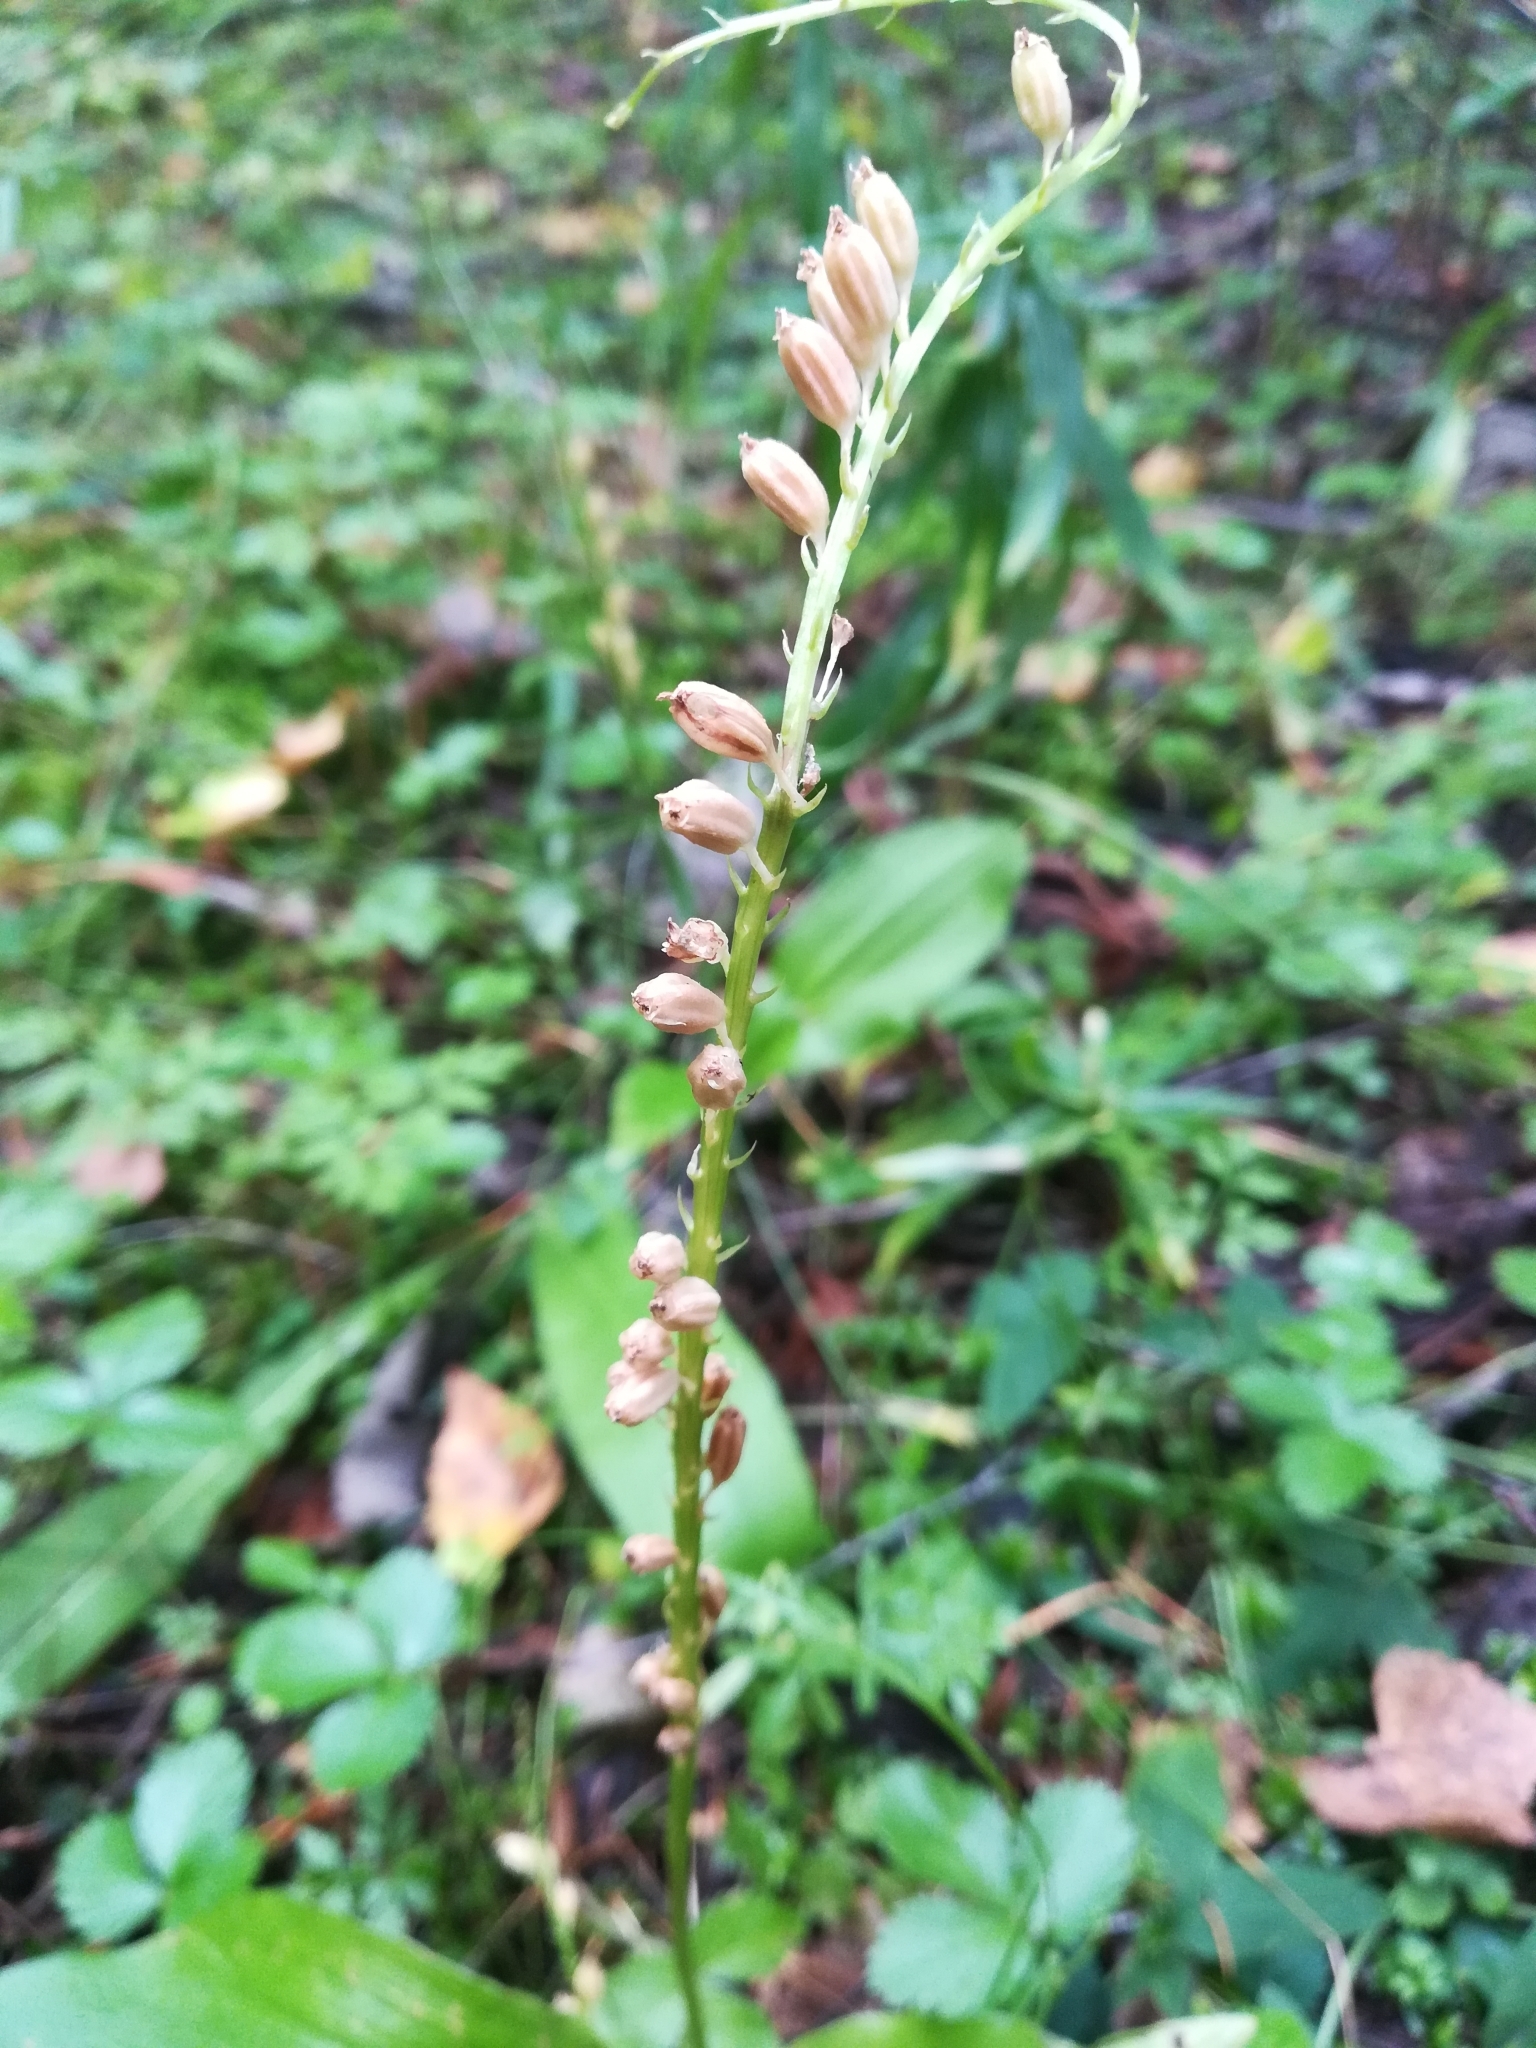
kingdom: Plantae
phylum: Tracheophyta
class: Liliopsida
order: Asparagales
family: Orchidaceae
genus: Malaxis
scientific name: Malaxis monophyllos
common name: White adder's-mouth
